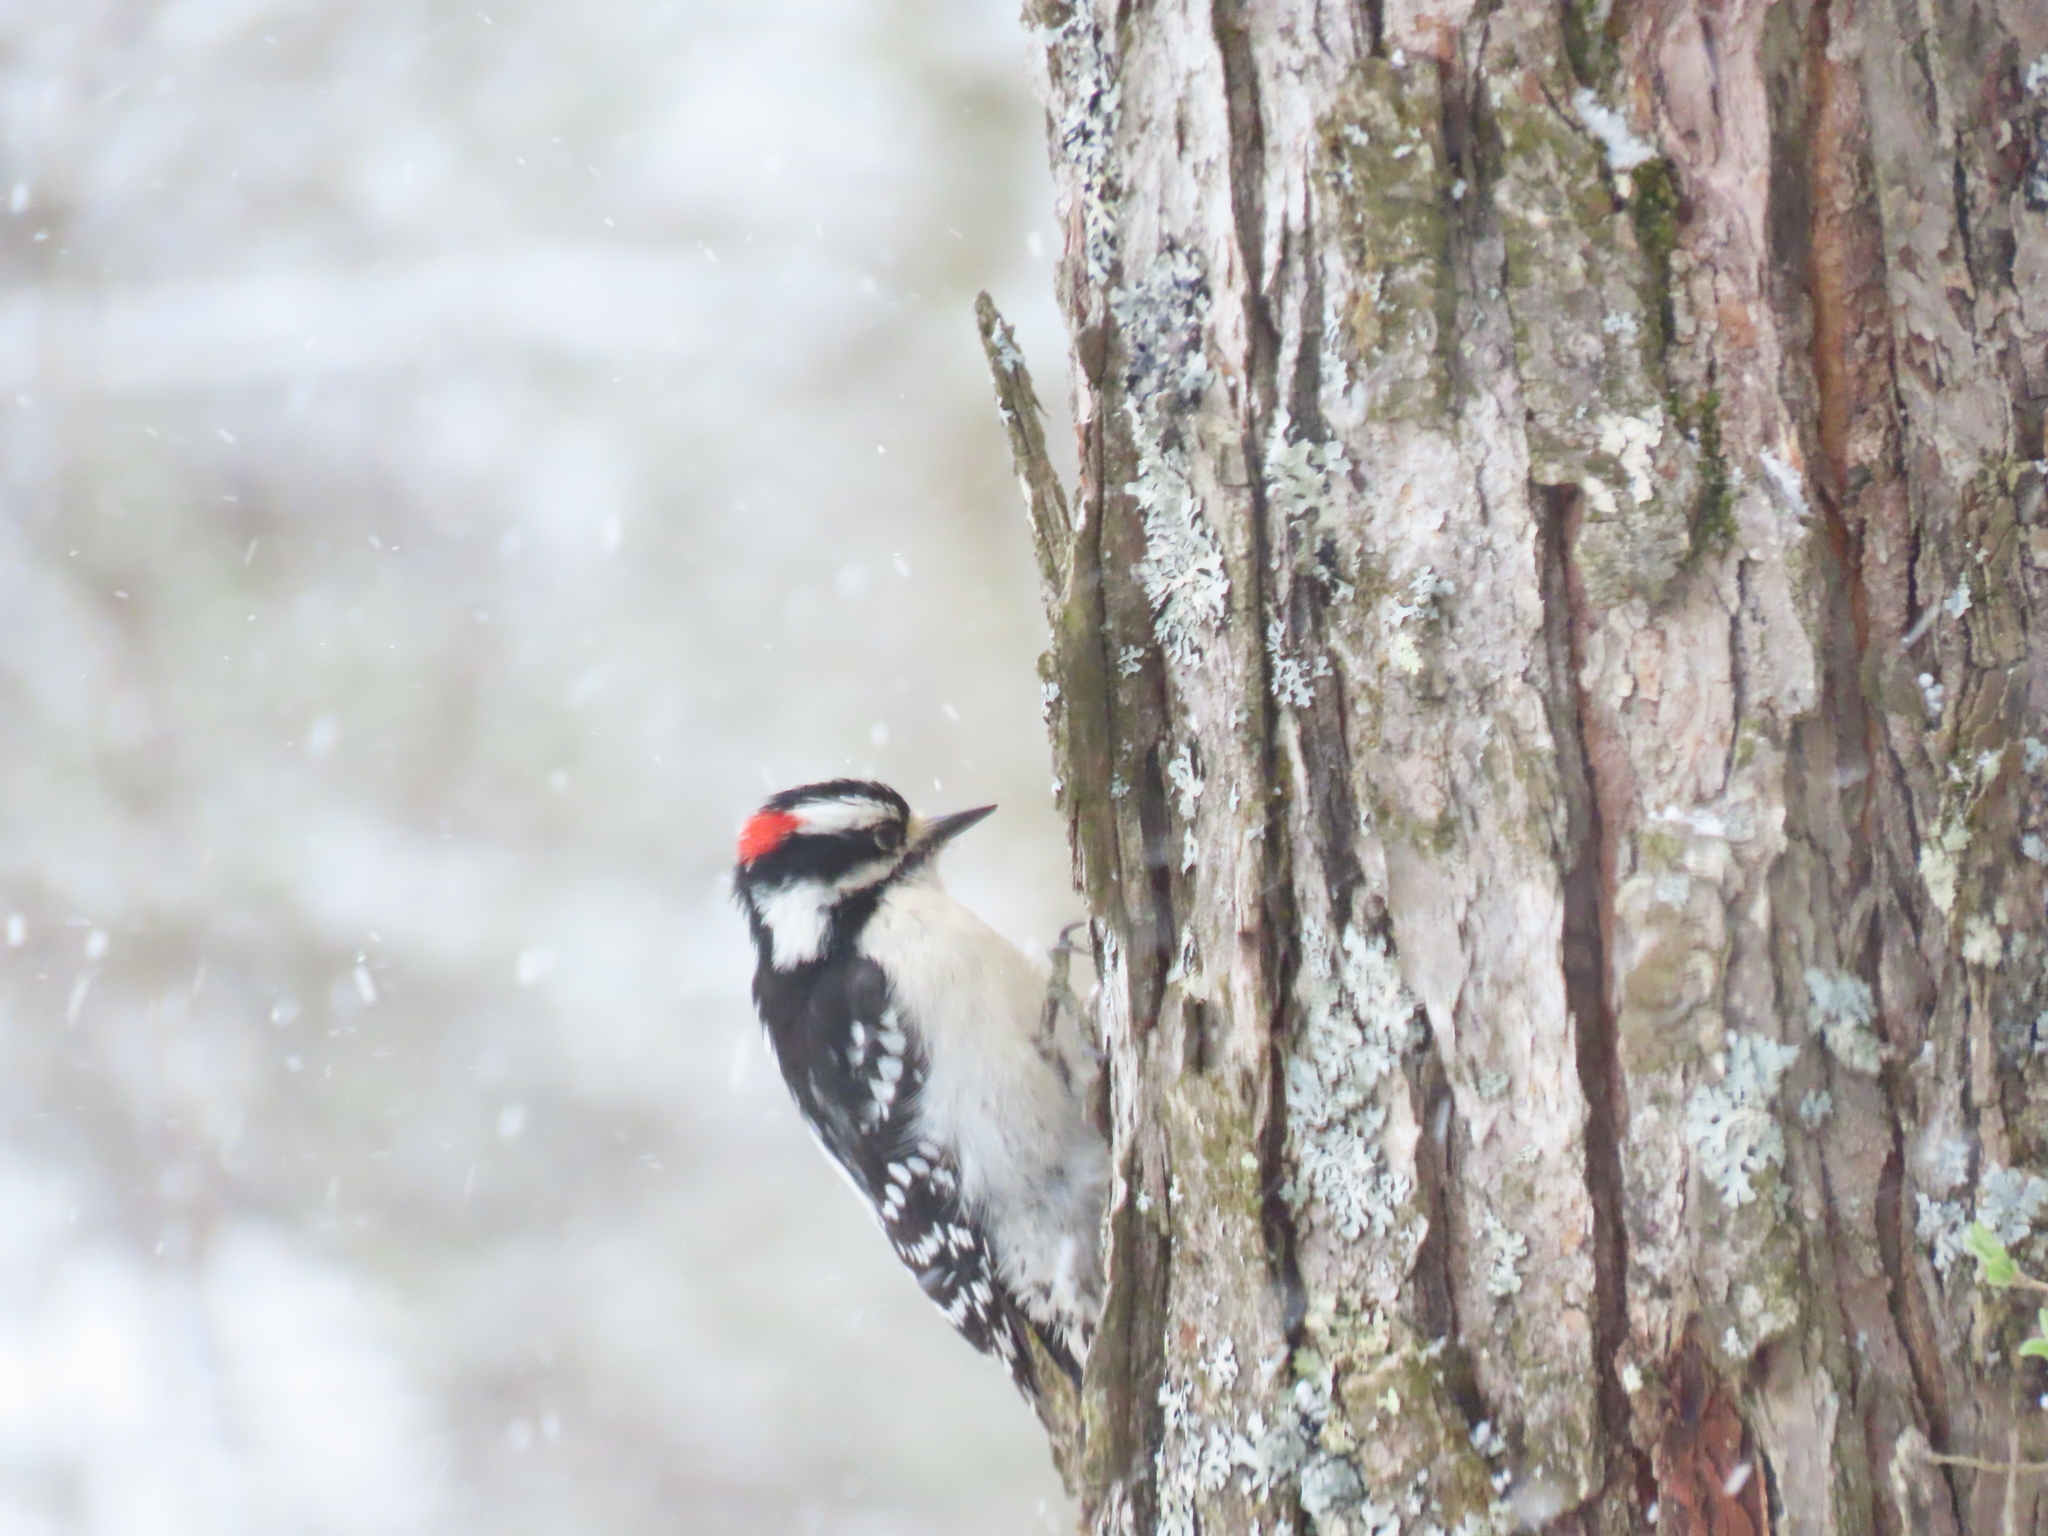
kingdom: Animalia
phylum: Chordata
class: Aves
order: Piciformes
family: Picidae
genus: Dryobates
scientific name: Dryobates pubescens
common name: Downy woodpecker
